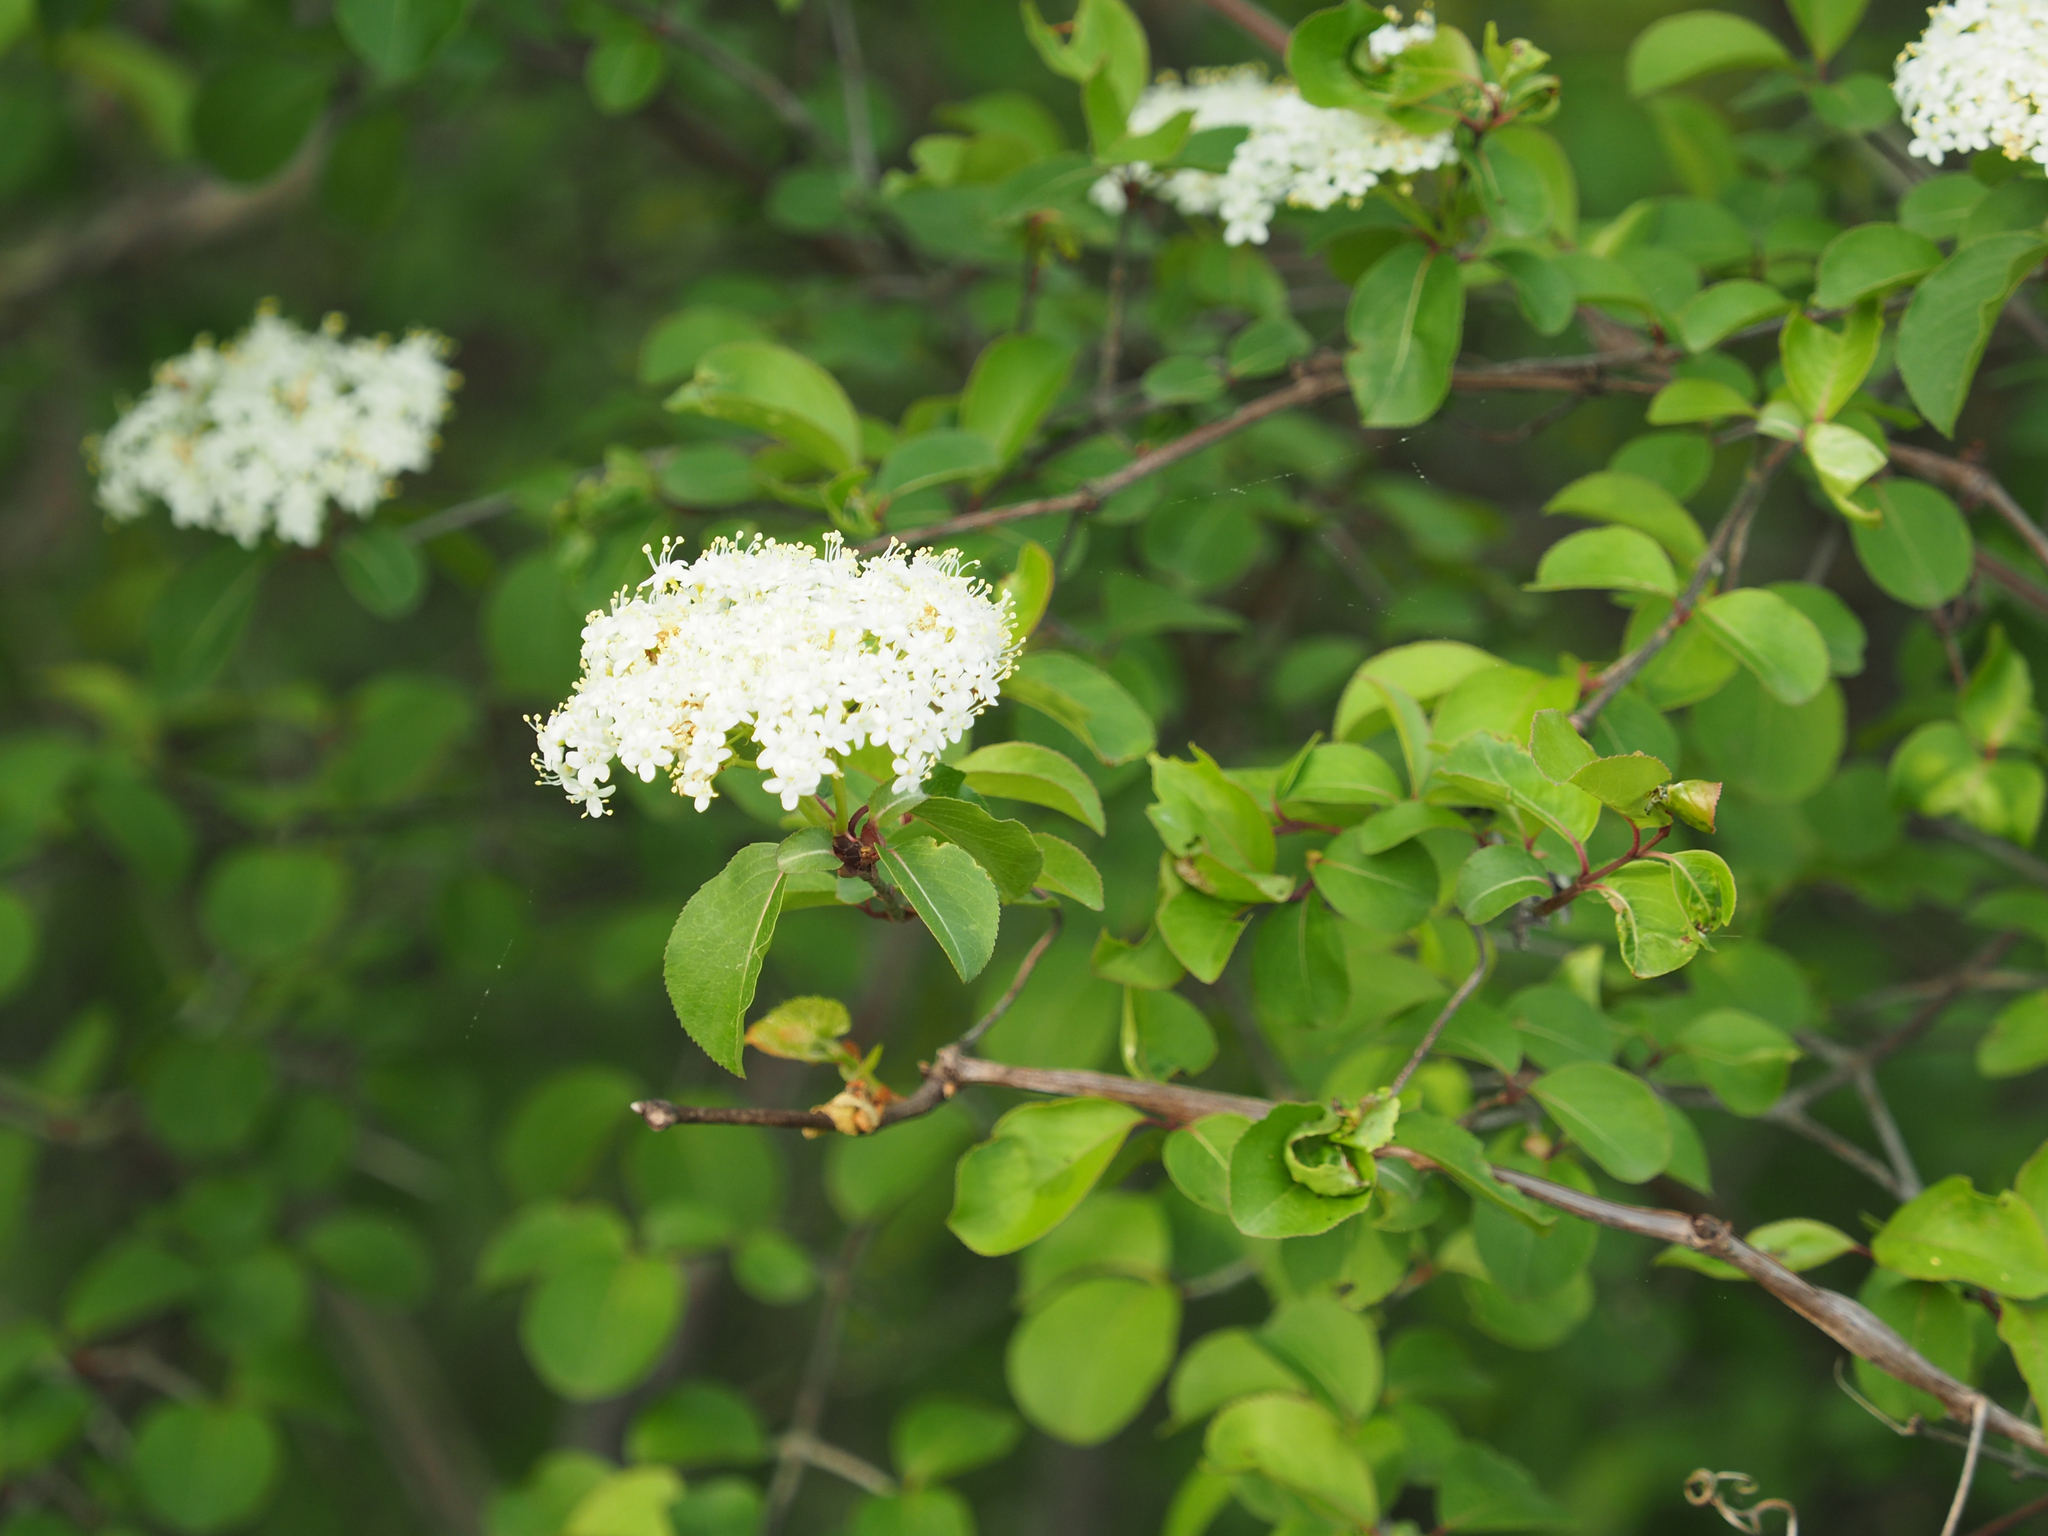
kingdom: Plantae
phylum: Tracheophyta
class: Magnoliopsida
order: Dipsacales
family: Viburnaceae
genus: Viburnum
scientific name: Viburnum prunifolium
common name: Black haw
